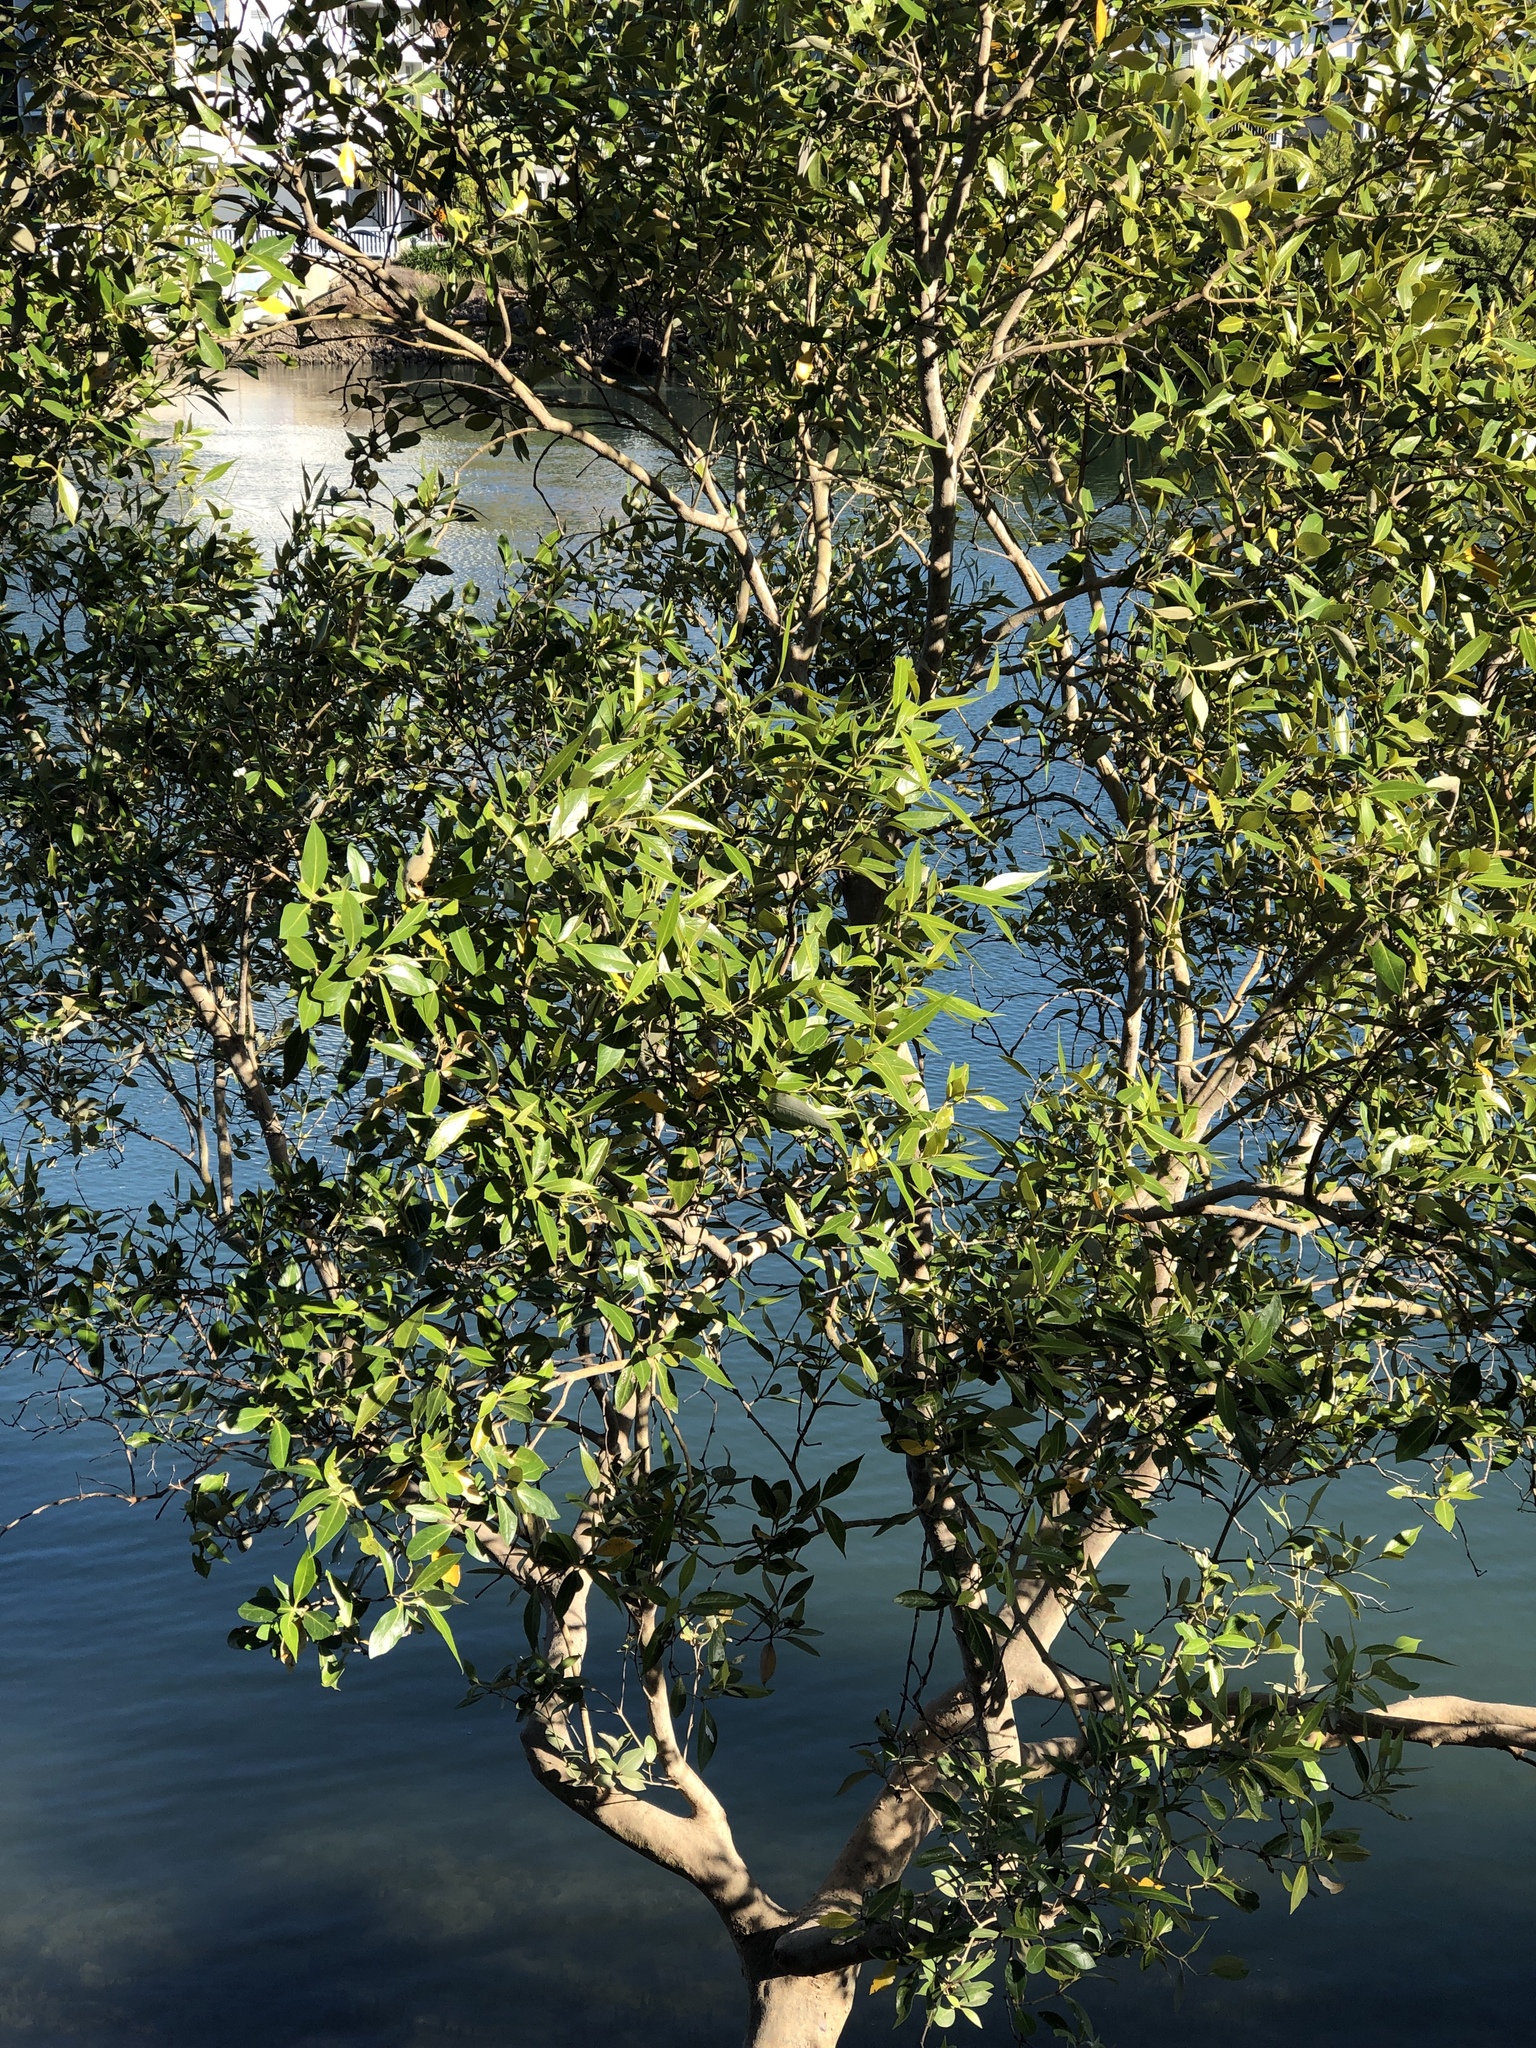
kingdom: Plantae
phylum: Tracheophyta
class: Magnoliopsida
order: Lamiales
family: Acanthaceae
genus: Avicennia
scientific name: Avicennia marina
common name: Gray mangrove
